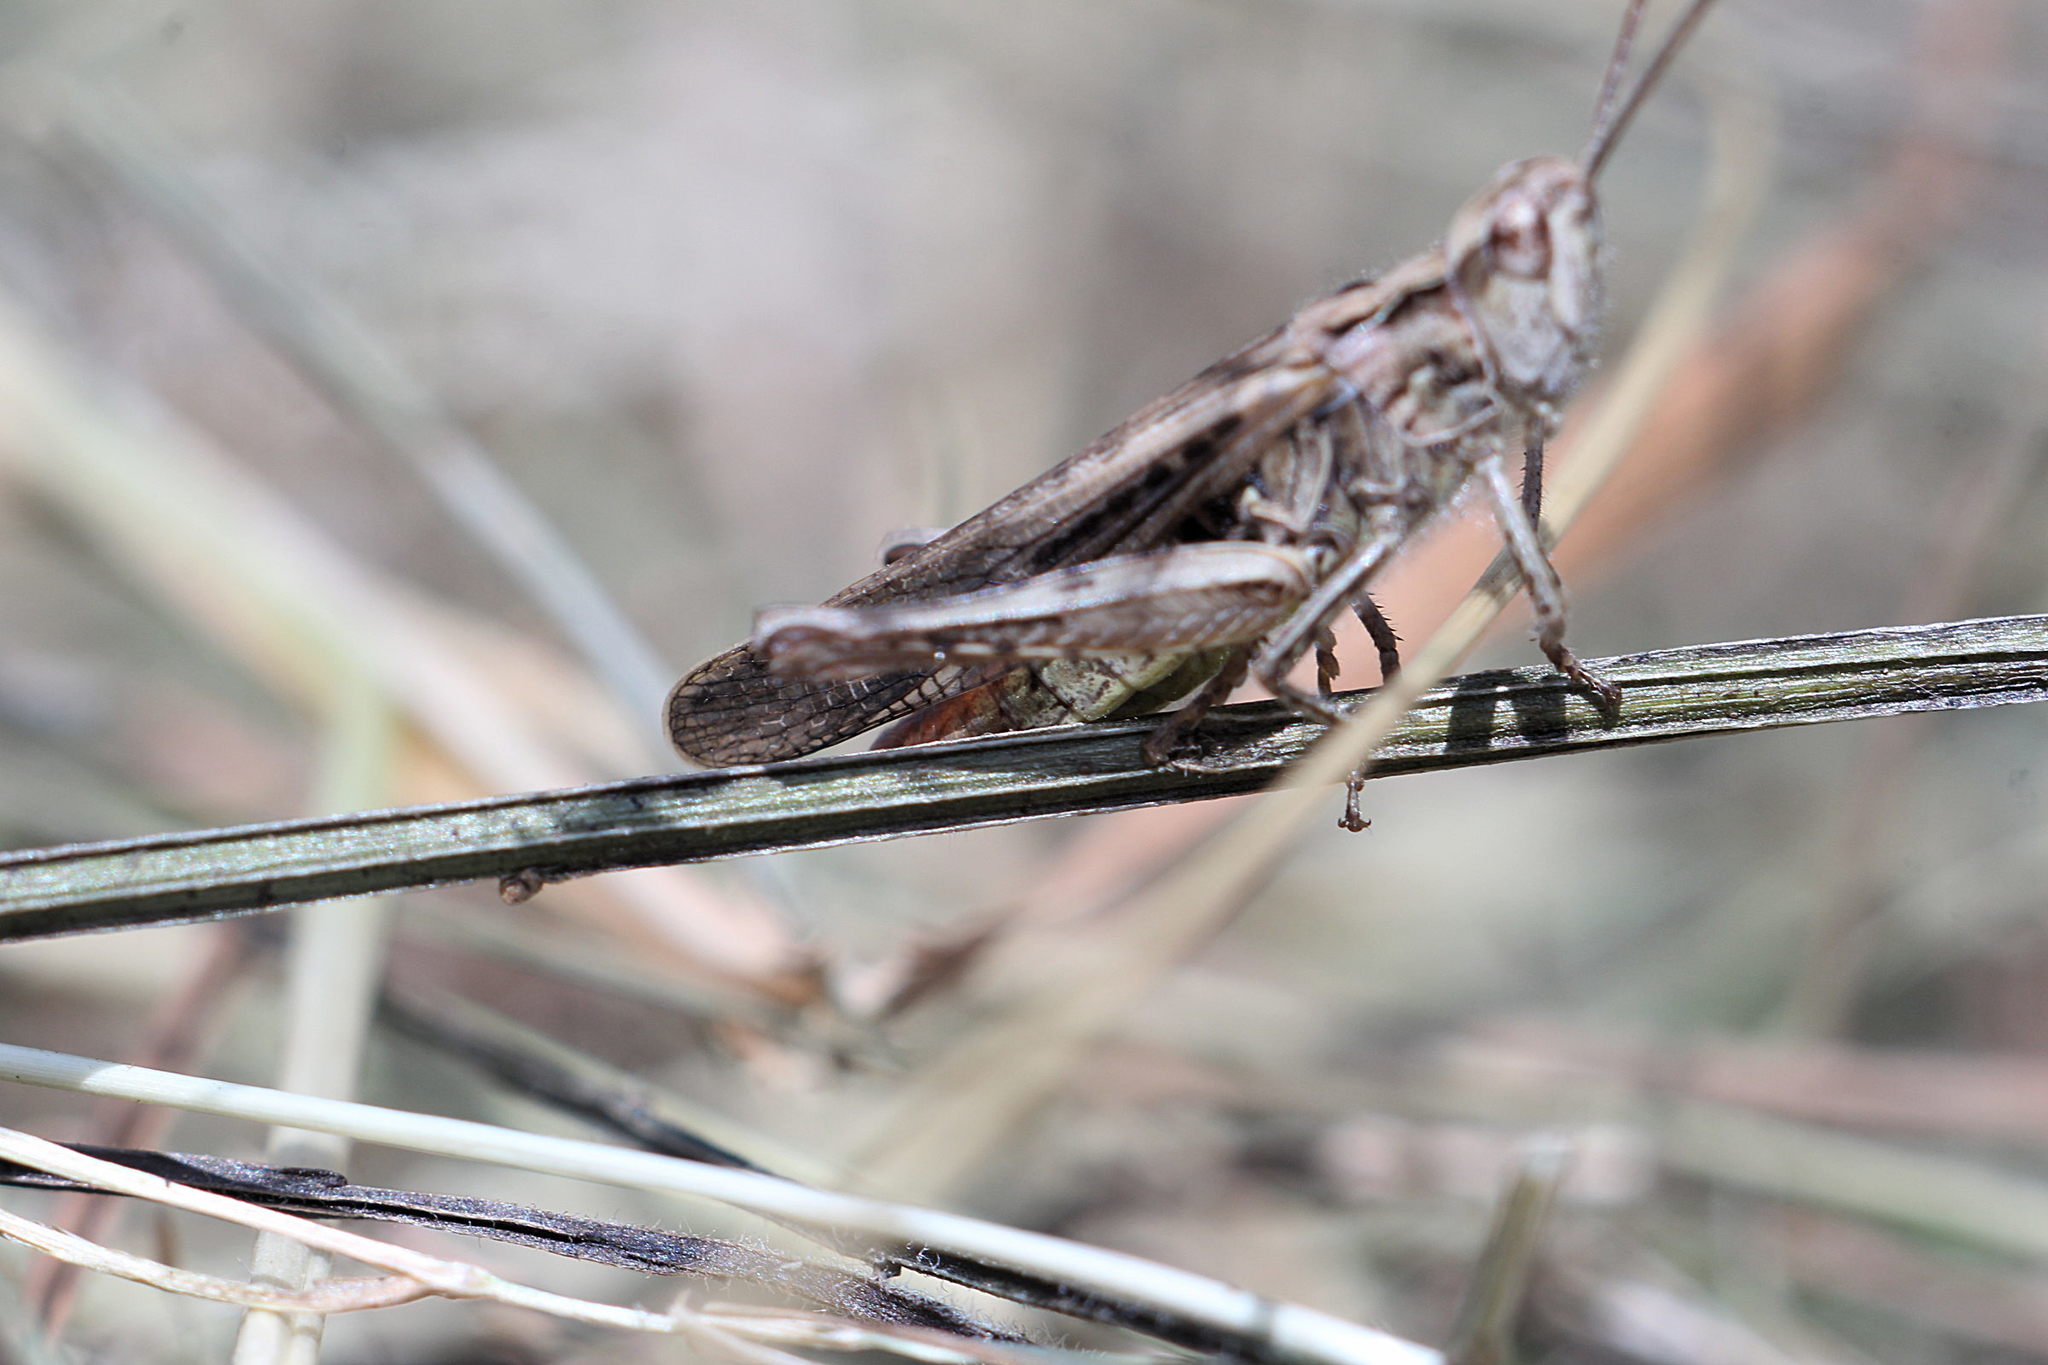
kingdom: Animalia
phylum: Arthropoda
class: Insecta
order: Orthoptera
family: Acrididae
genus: Chorthippus
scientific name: Chorthippus brunneus
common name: Field grasshopper
